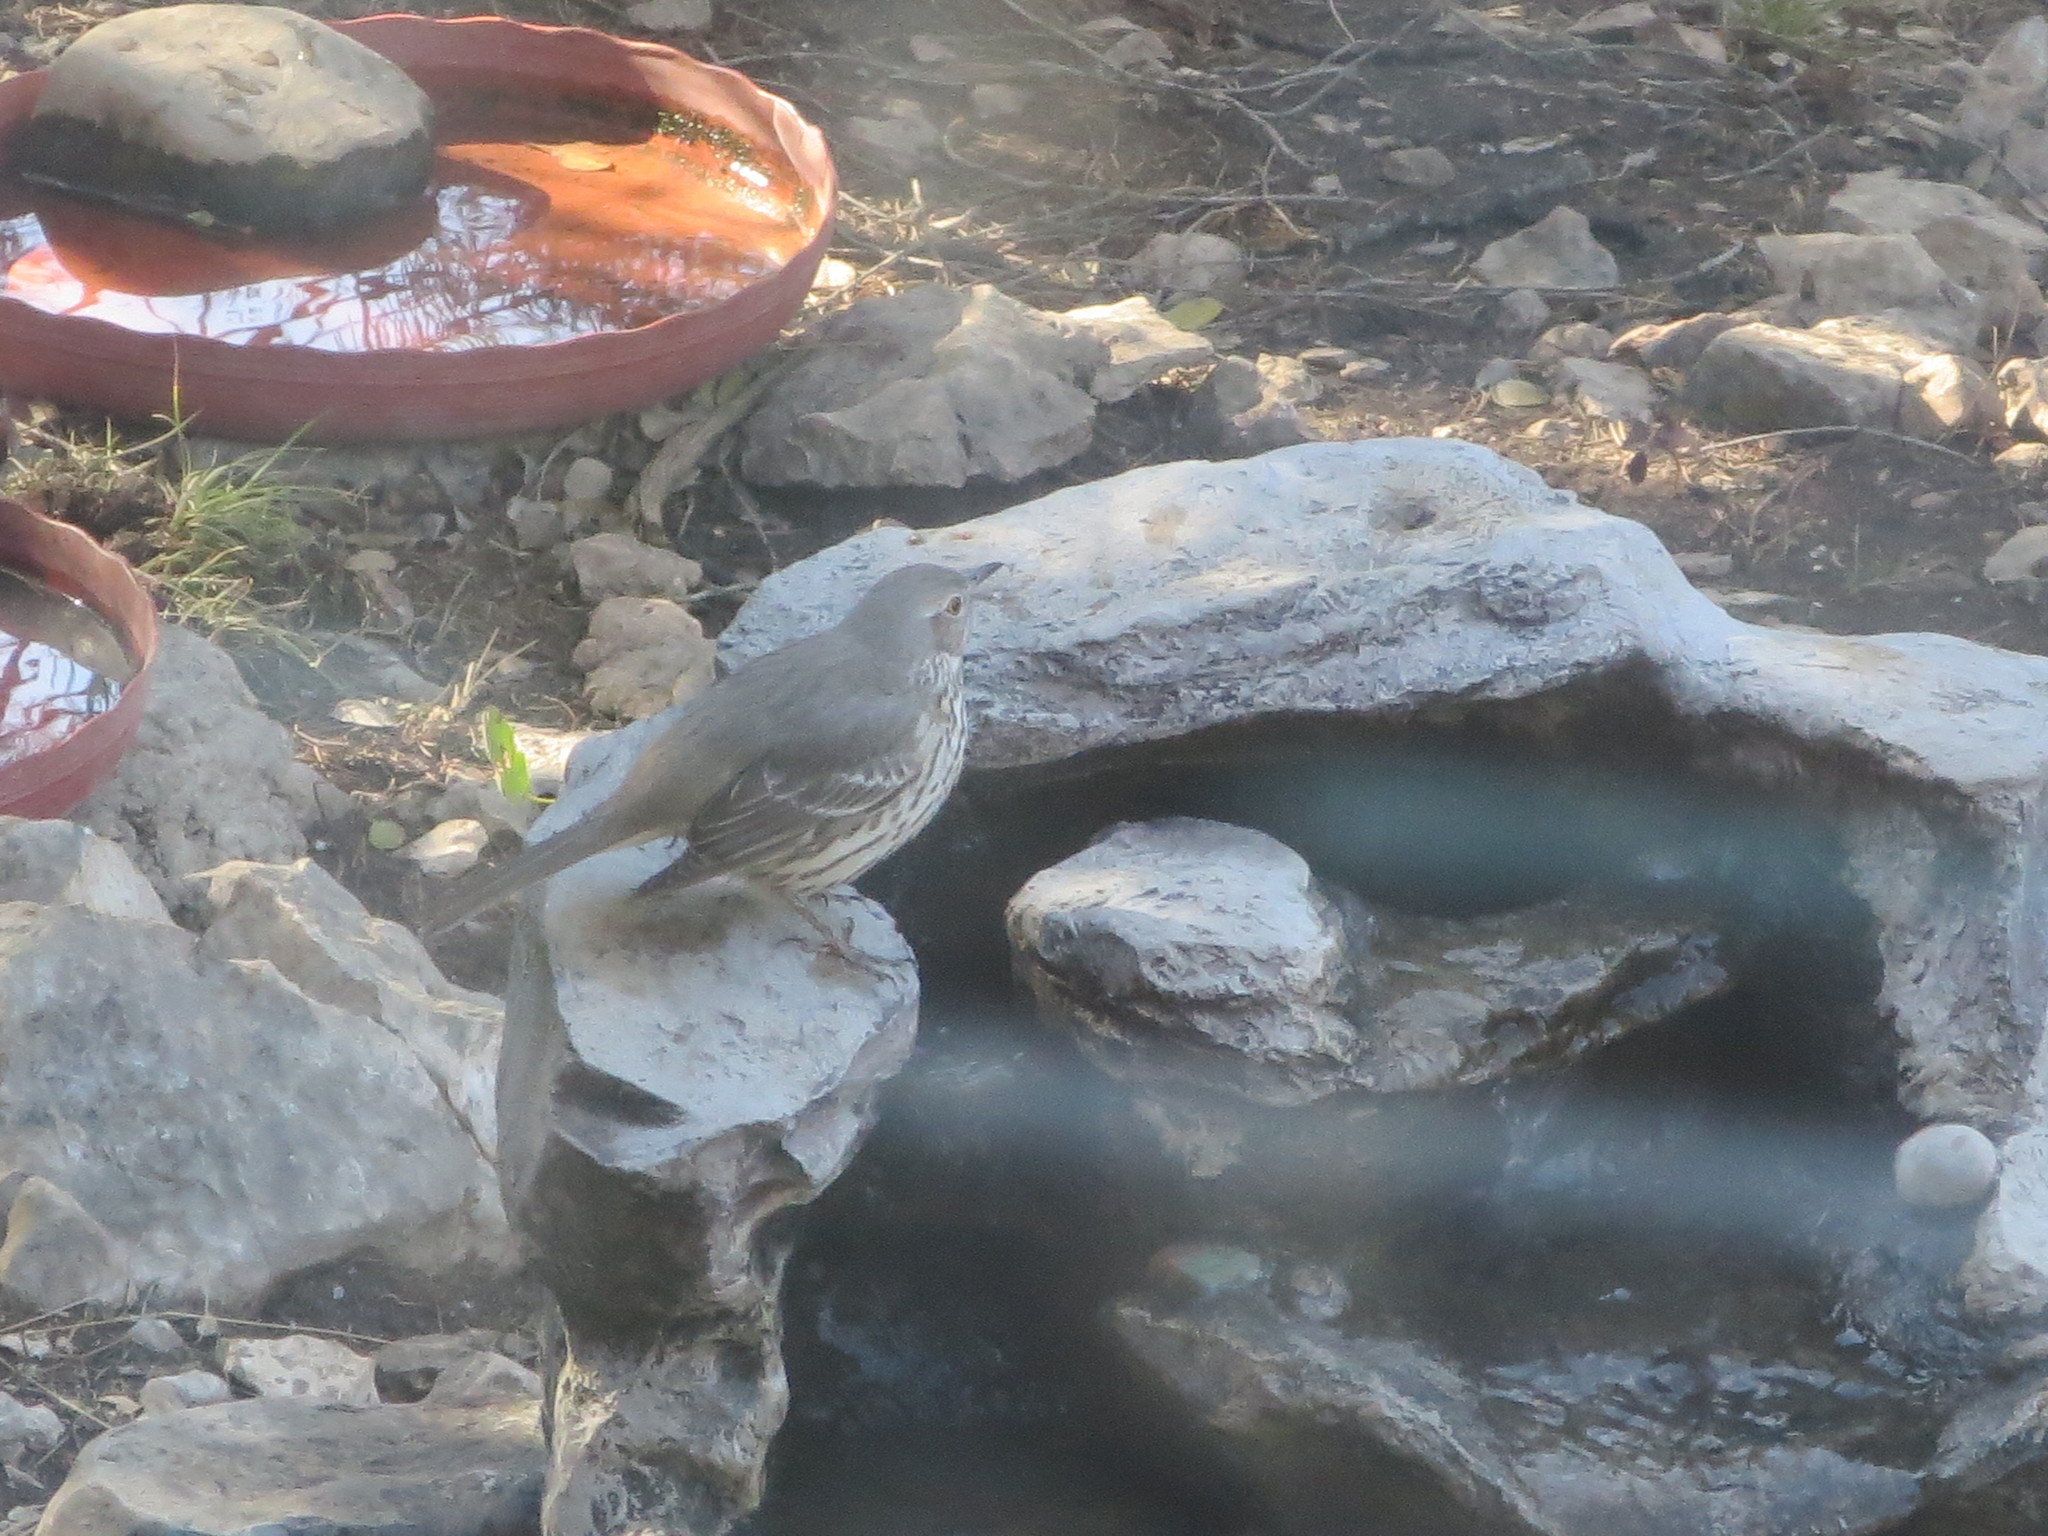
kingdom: Animalia
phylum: Chordata
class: Aves
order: Passeriformes
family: Mimidae
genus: Oreoscoptes
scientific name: Oreoscoptes montanus
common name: Sage thrasher
